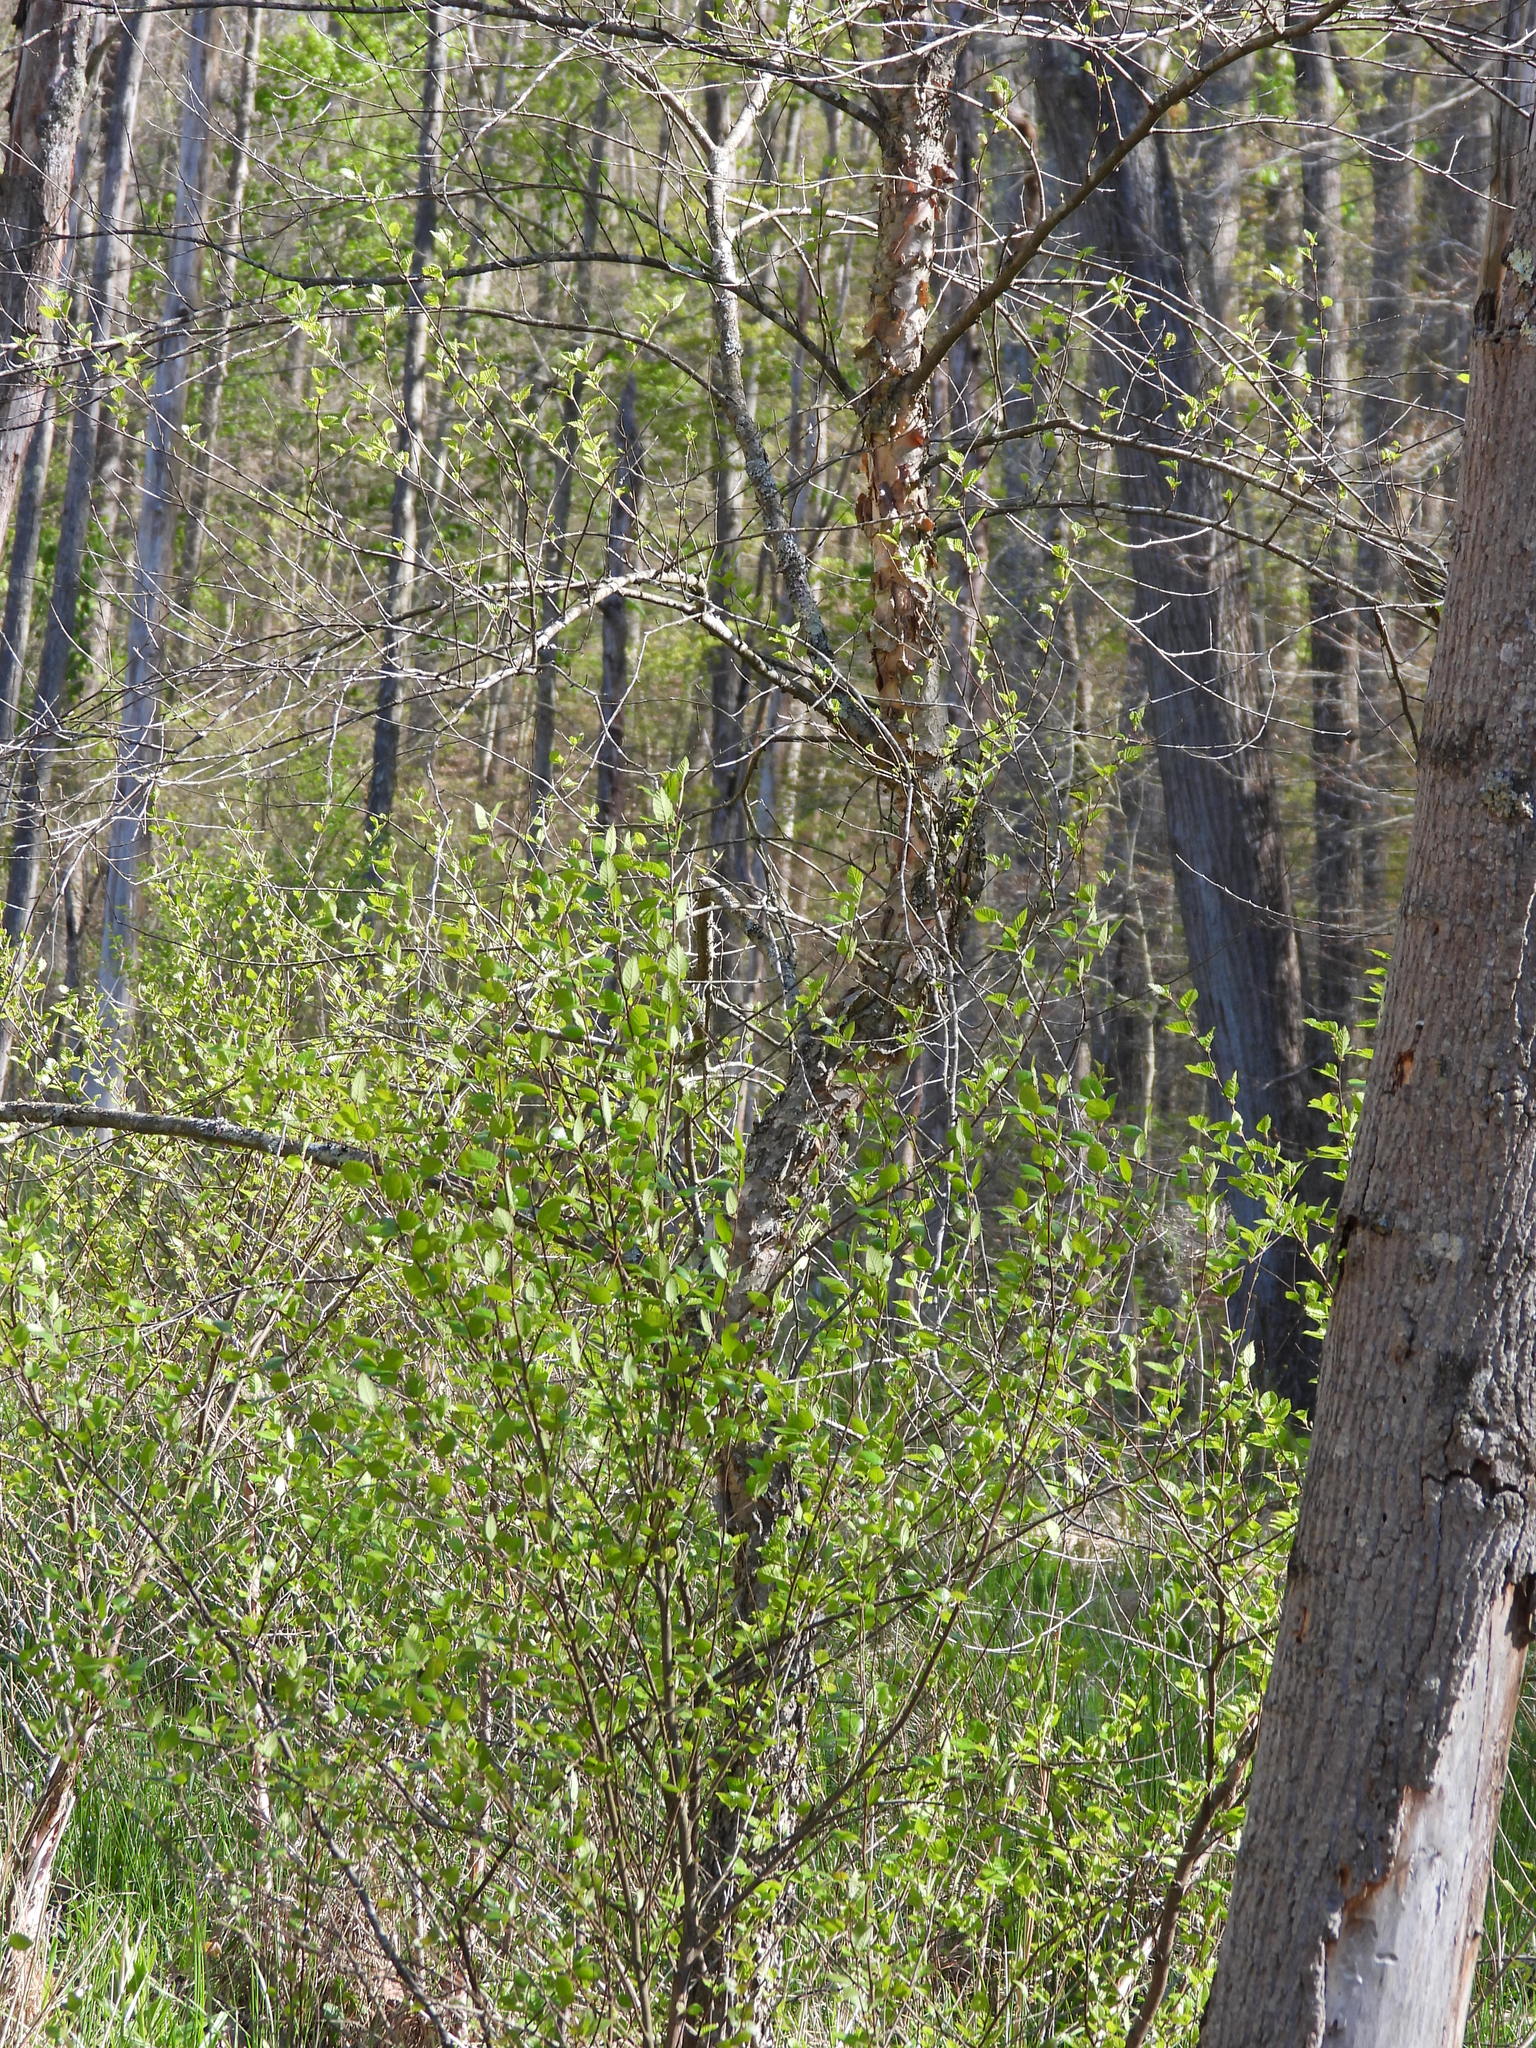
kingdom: Plantae
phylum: Tracheophyta
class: Magnoliopsida
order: Fagales
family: Betulaceae
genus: Betula
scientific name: Betula nigra
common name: Black birch
